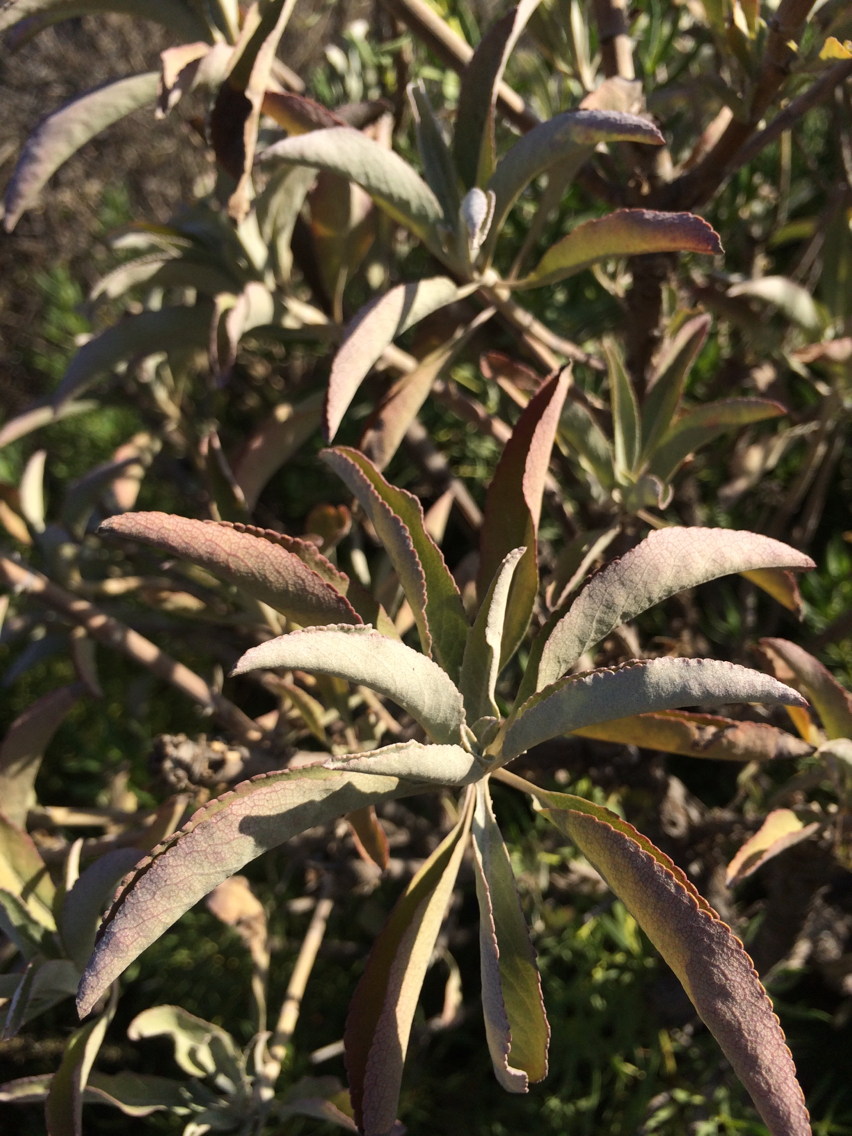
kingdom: Plantae
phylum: Tracheophyta
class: Magnoliopsida
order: Lamiales
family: Lamiaceae
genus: Salvia
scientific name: Salvia apiana
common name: White sage
